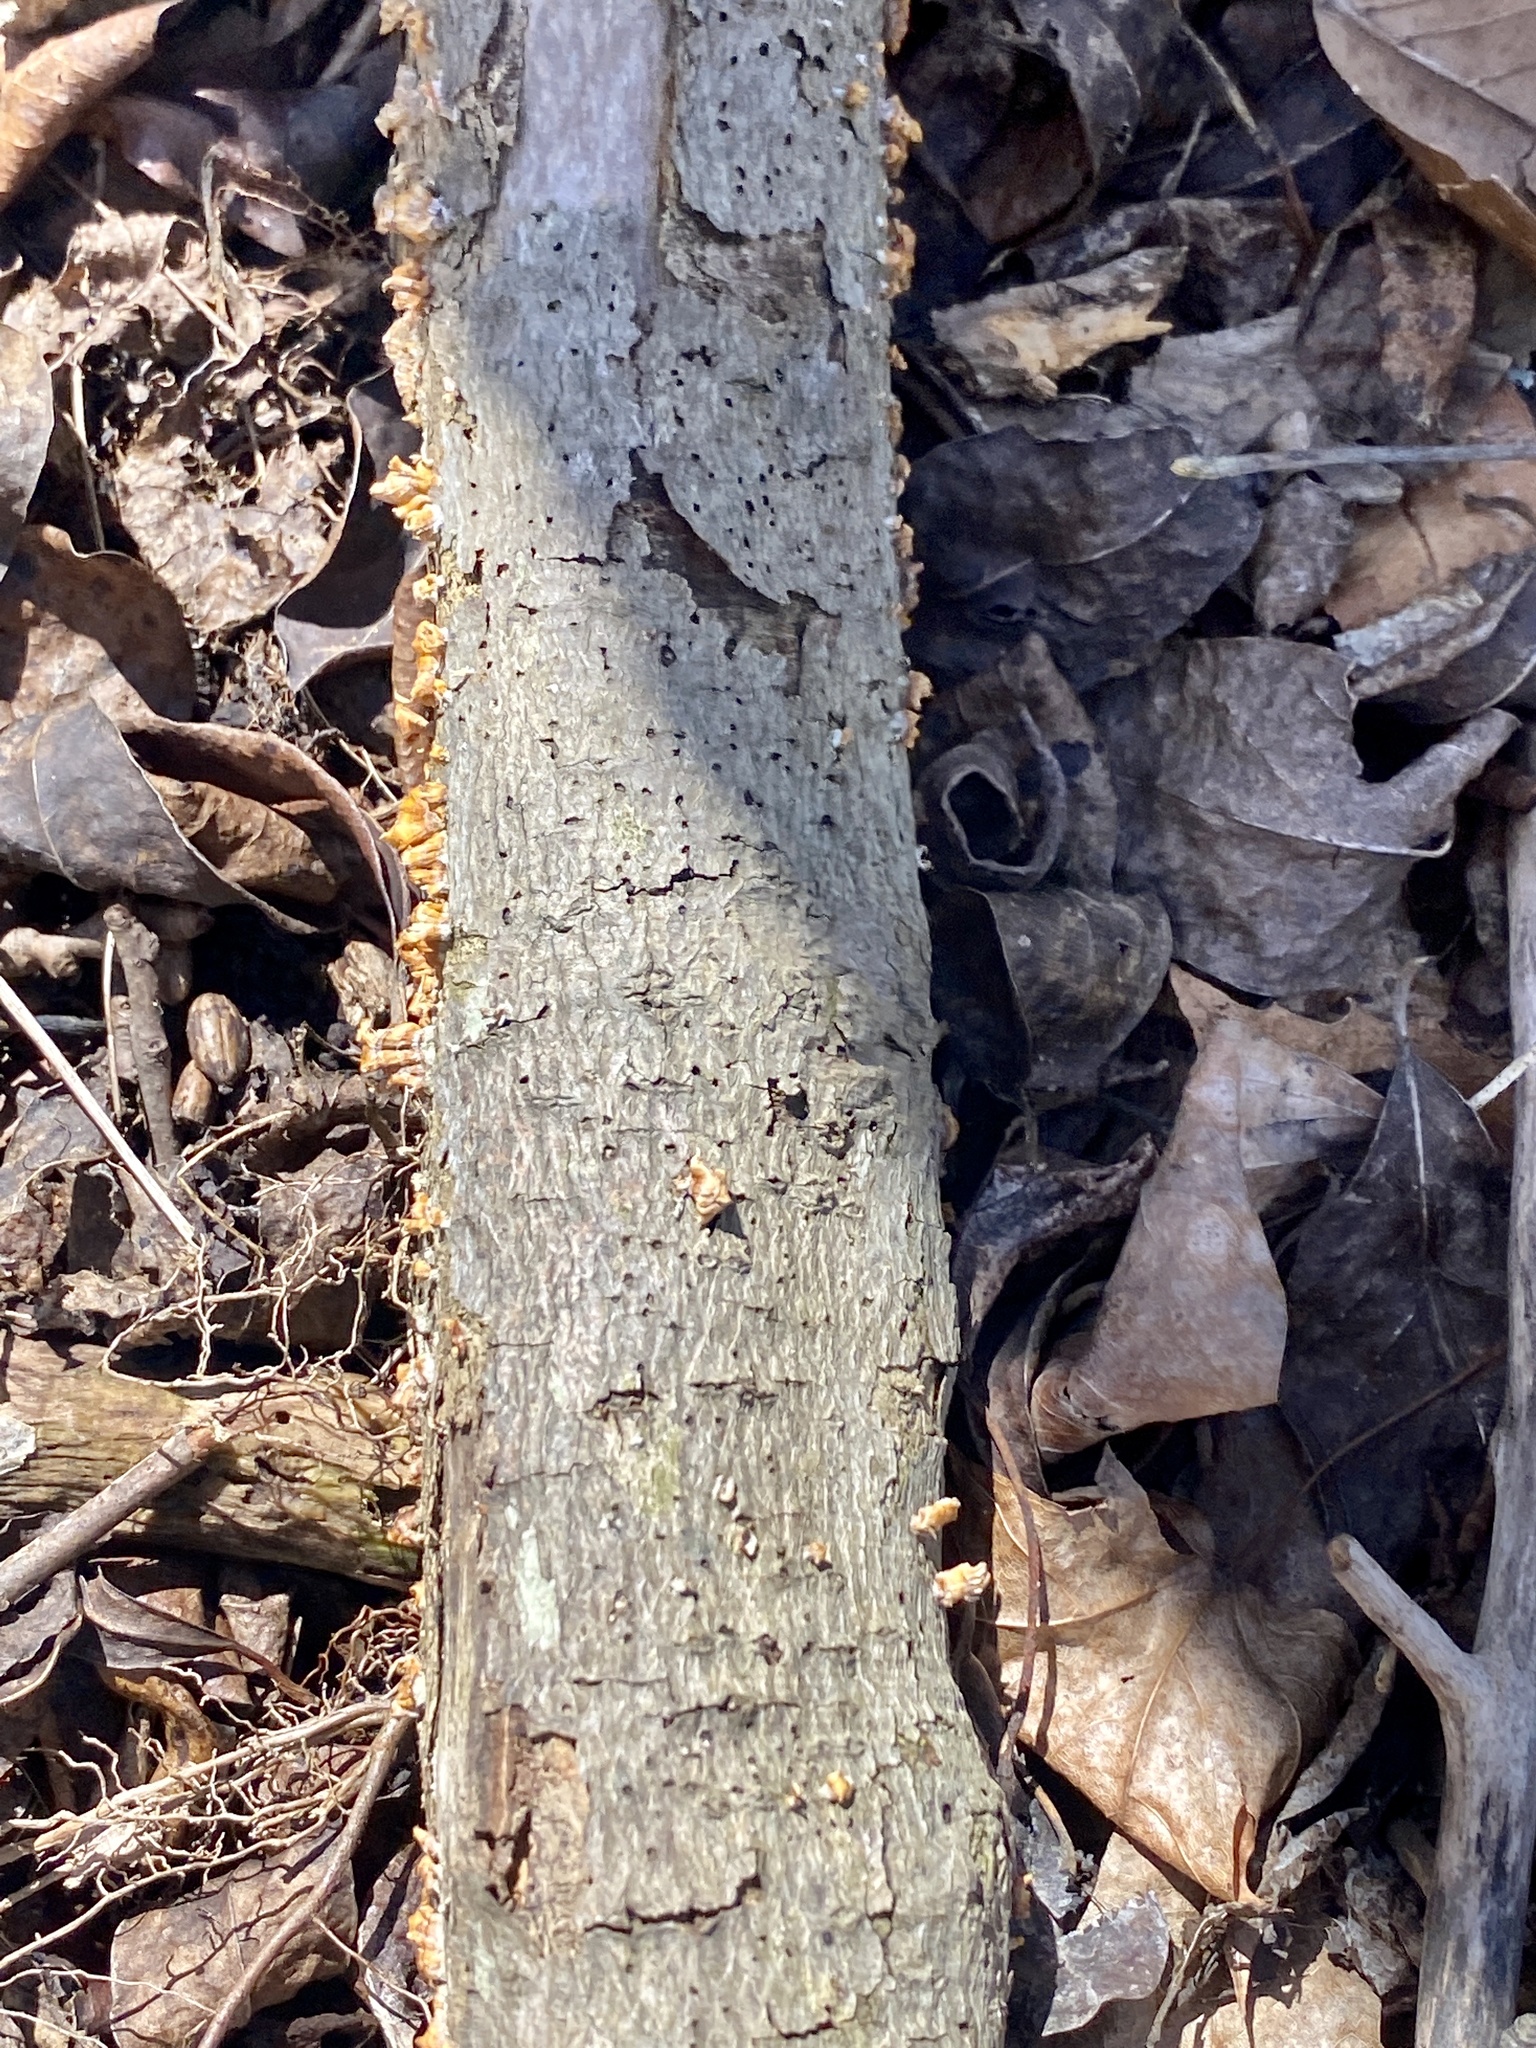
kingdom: Fungi
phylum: Basidiomycota
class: Agaricomycetes
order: Russulales
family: Stereaceae
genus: Stereum
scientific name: Stereum complicatum
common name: Crowded parchment
